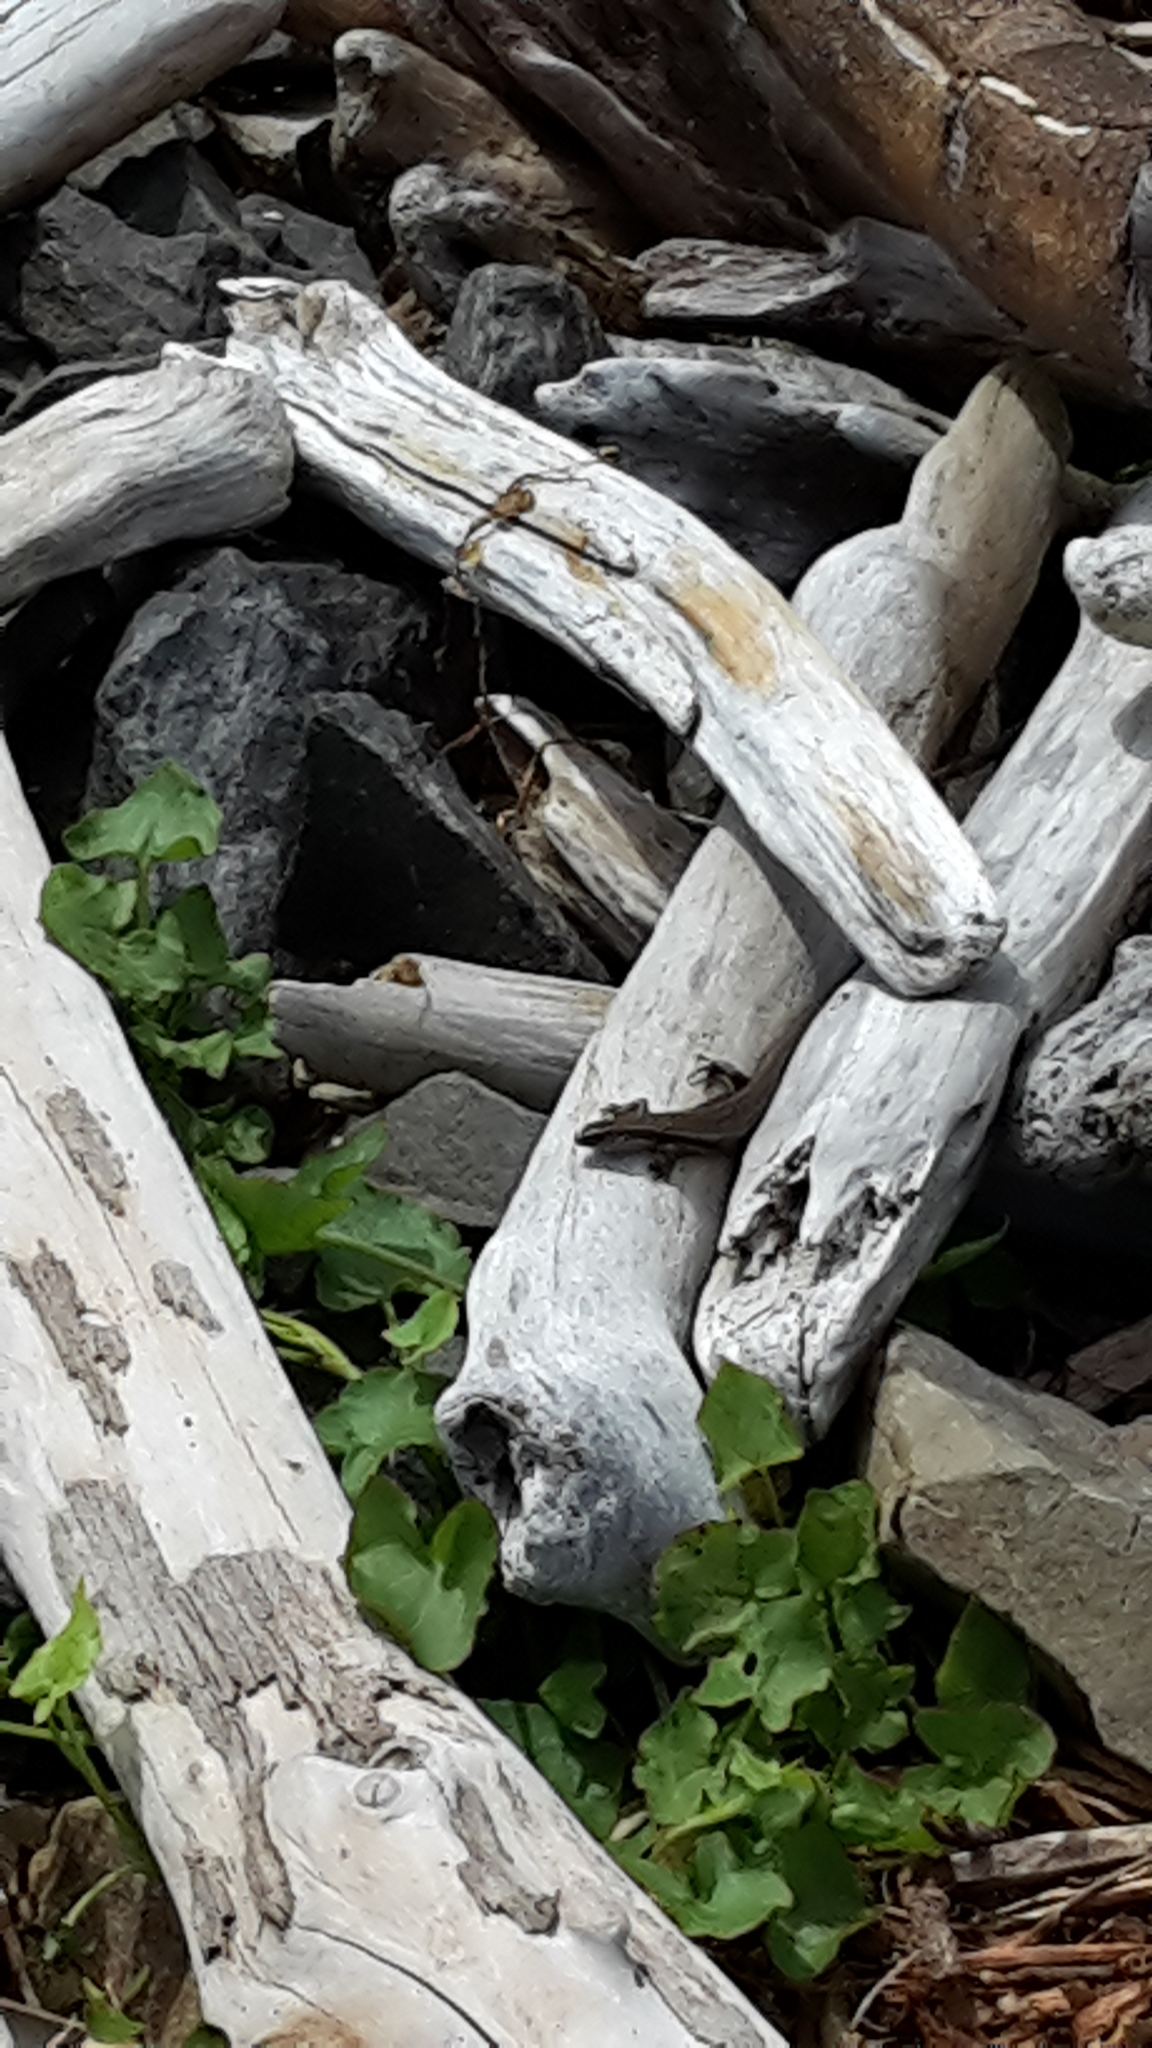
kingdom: Animalia
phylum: Chordata
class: Squamata
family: Scincidae
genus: Oligosoma
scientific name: Oligosoma polychroma
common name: Common new zealand skink
